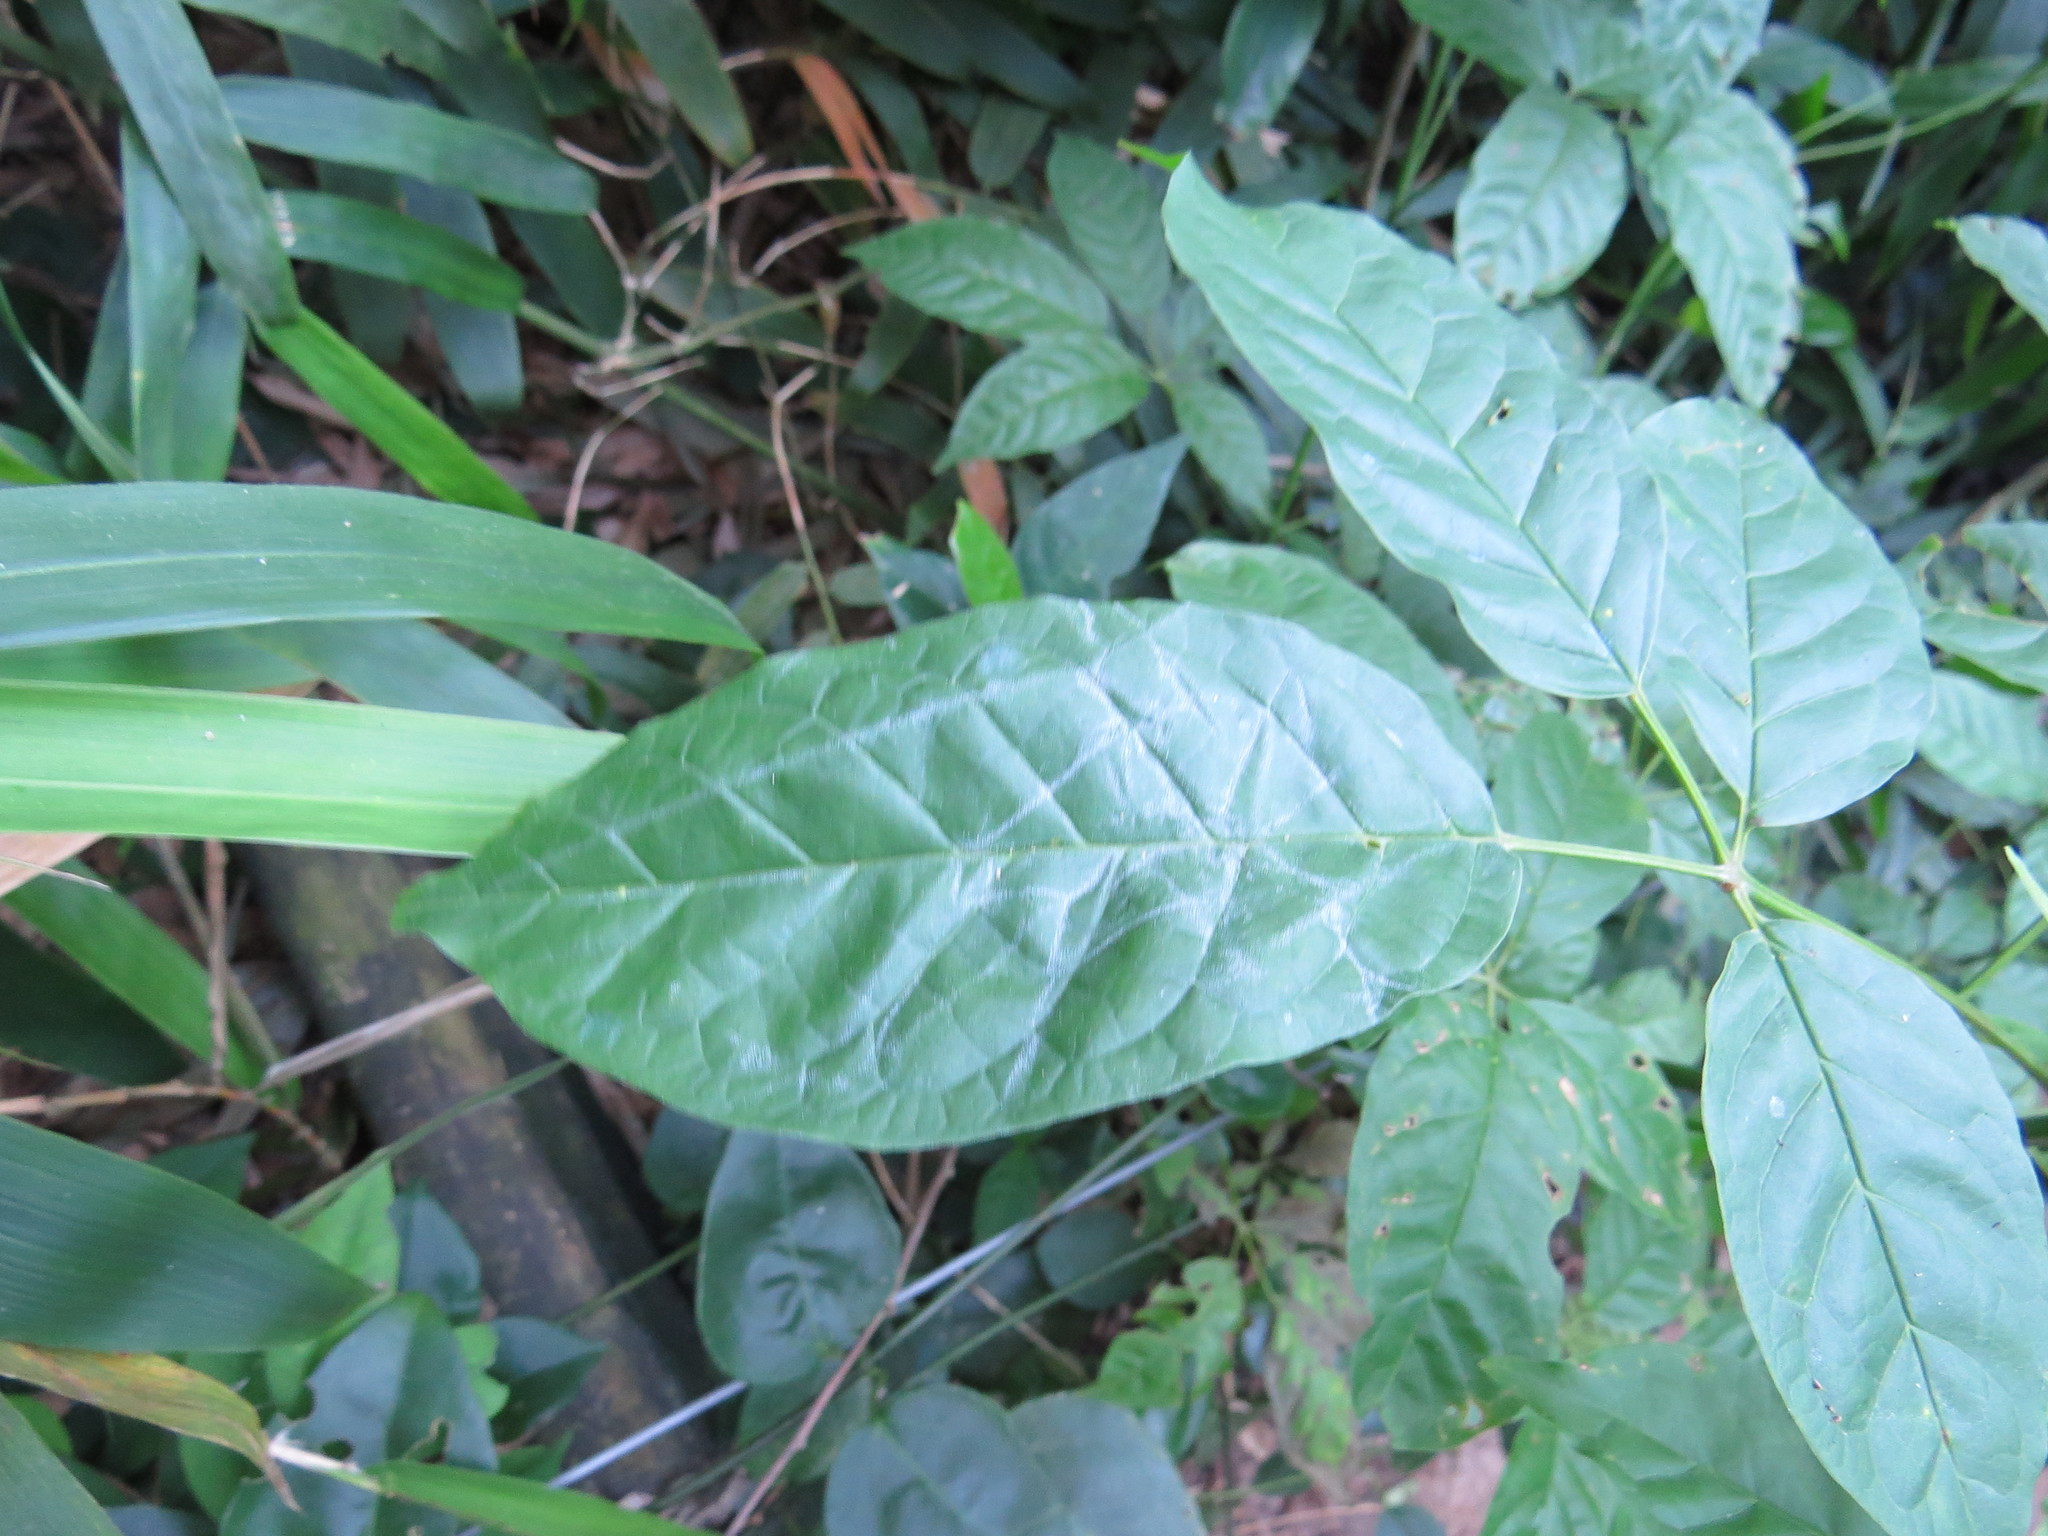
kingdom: Plantae
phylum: Tracheophyta
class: Magnoliopsida
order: Lamiales
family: Bignoniaceae
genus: Sparattosperma
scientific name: Sparattosperma leucanthum
